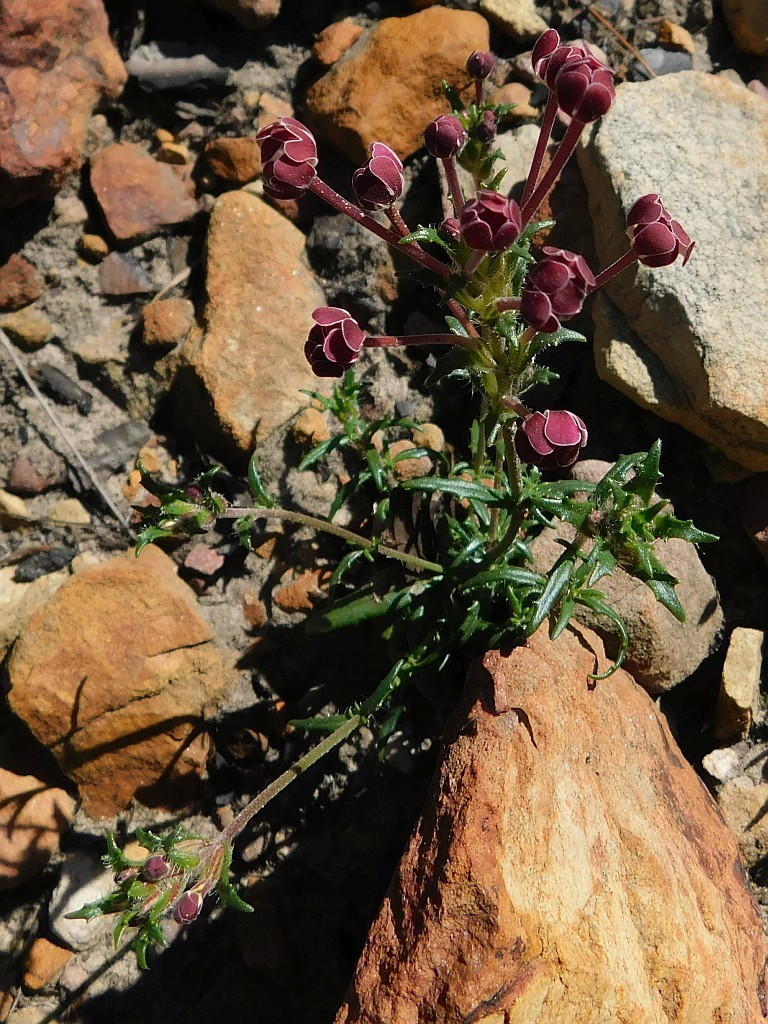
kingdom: Plantae
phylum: Tracheophyta
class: Magnoliopsida
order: Lamiales
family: Scrophulariaceae
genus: Zaluzianskya
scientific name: Zaluzianskya capensis
